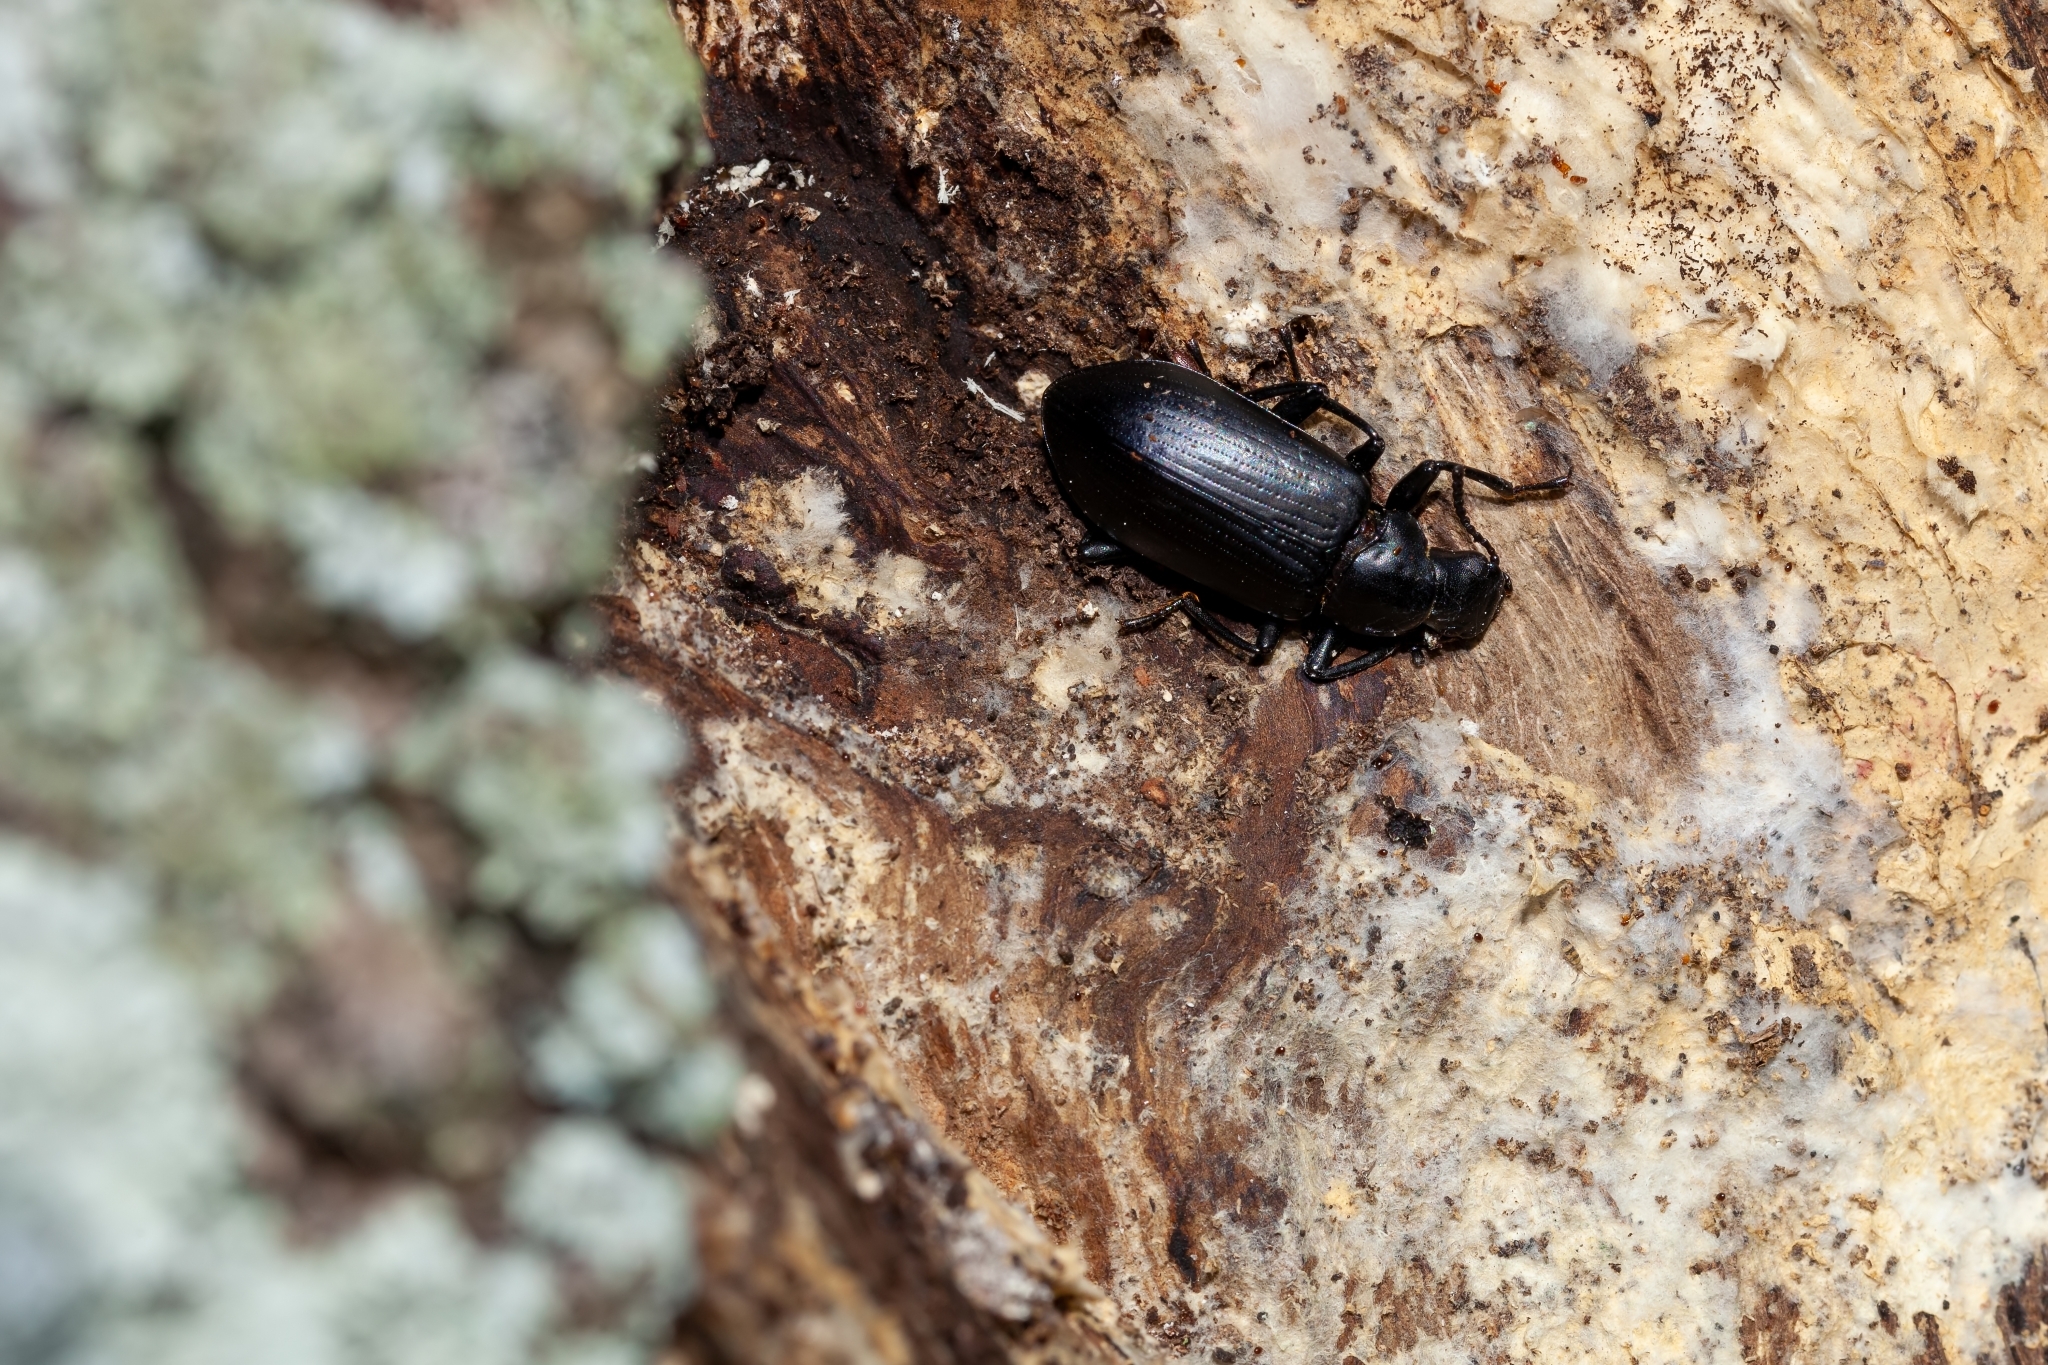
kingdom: Animalia
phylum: Arthropoda
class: Insecta
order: Coleoptera
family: Tenebrionidae
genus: Alobates
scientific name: Alobates
